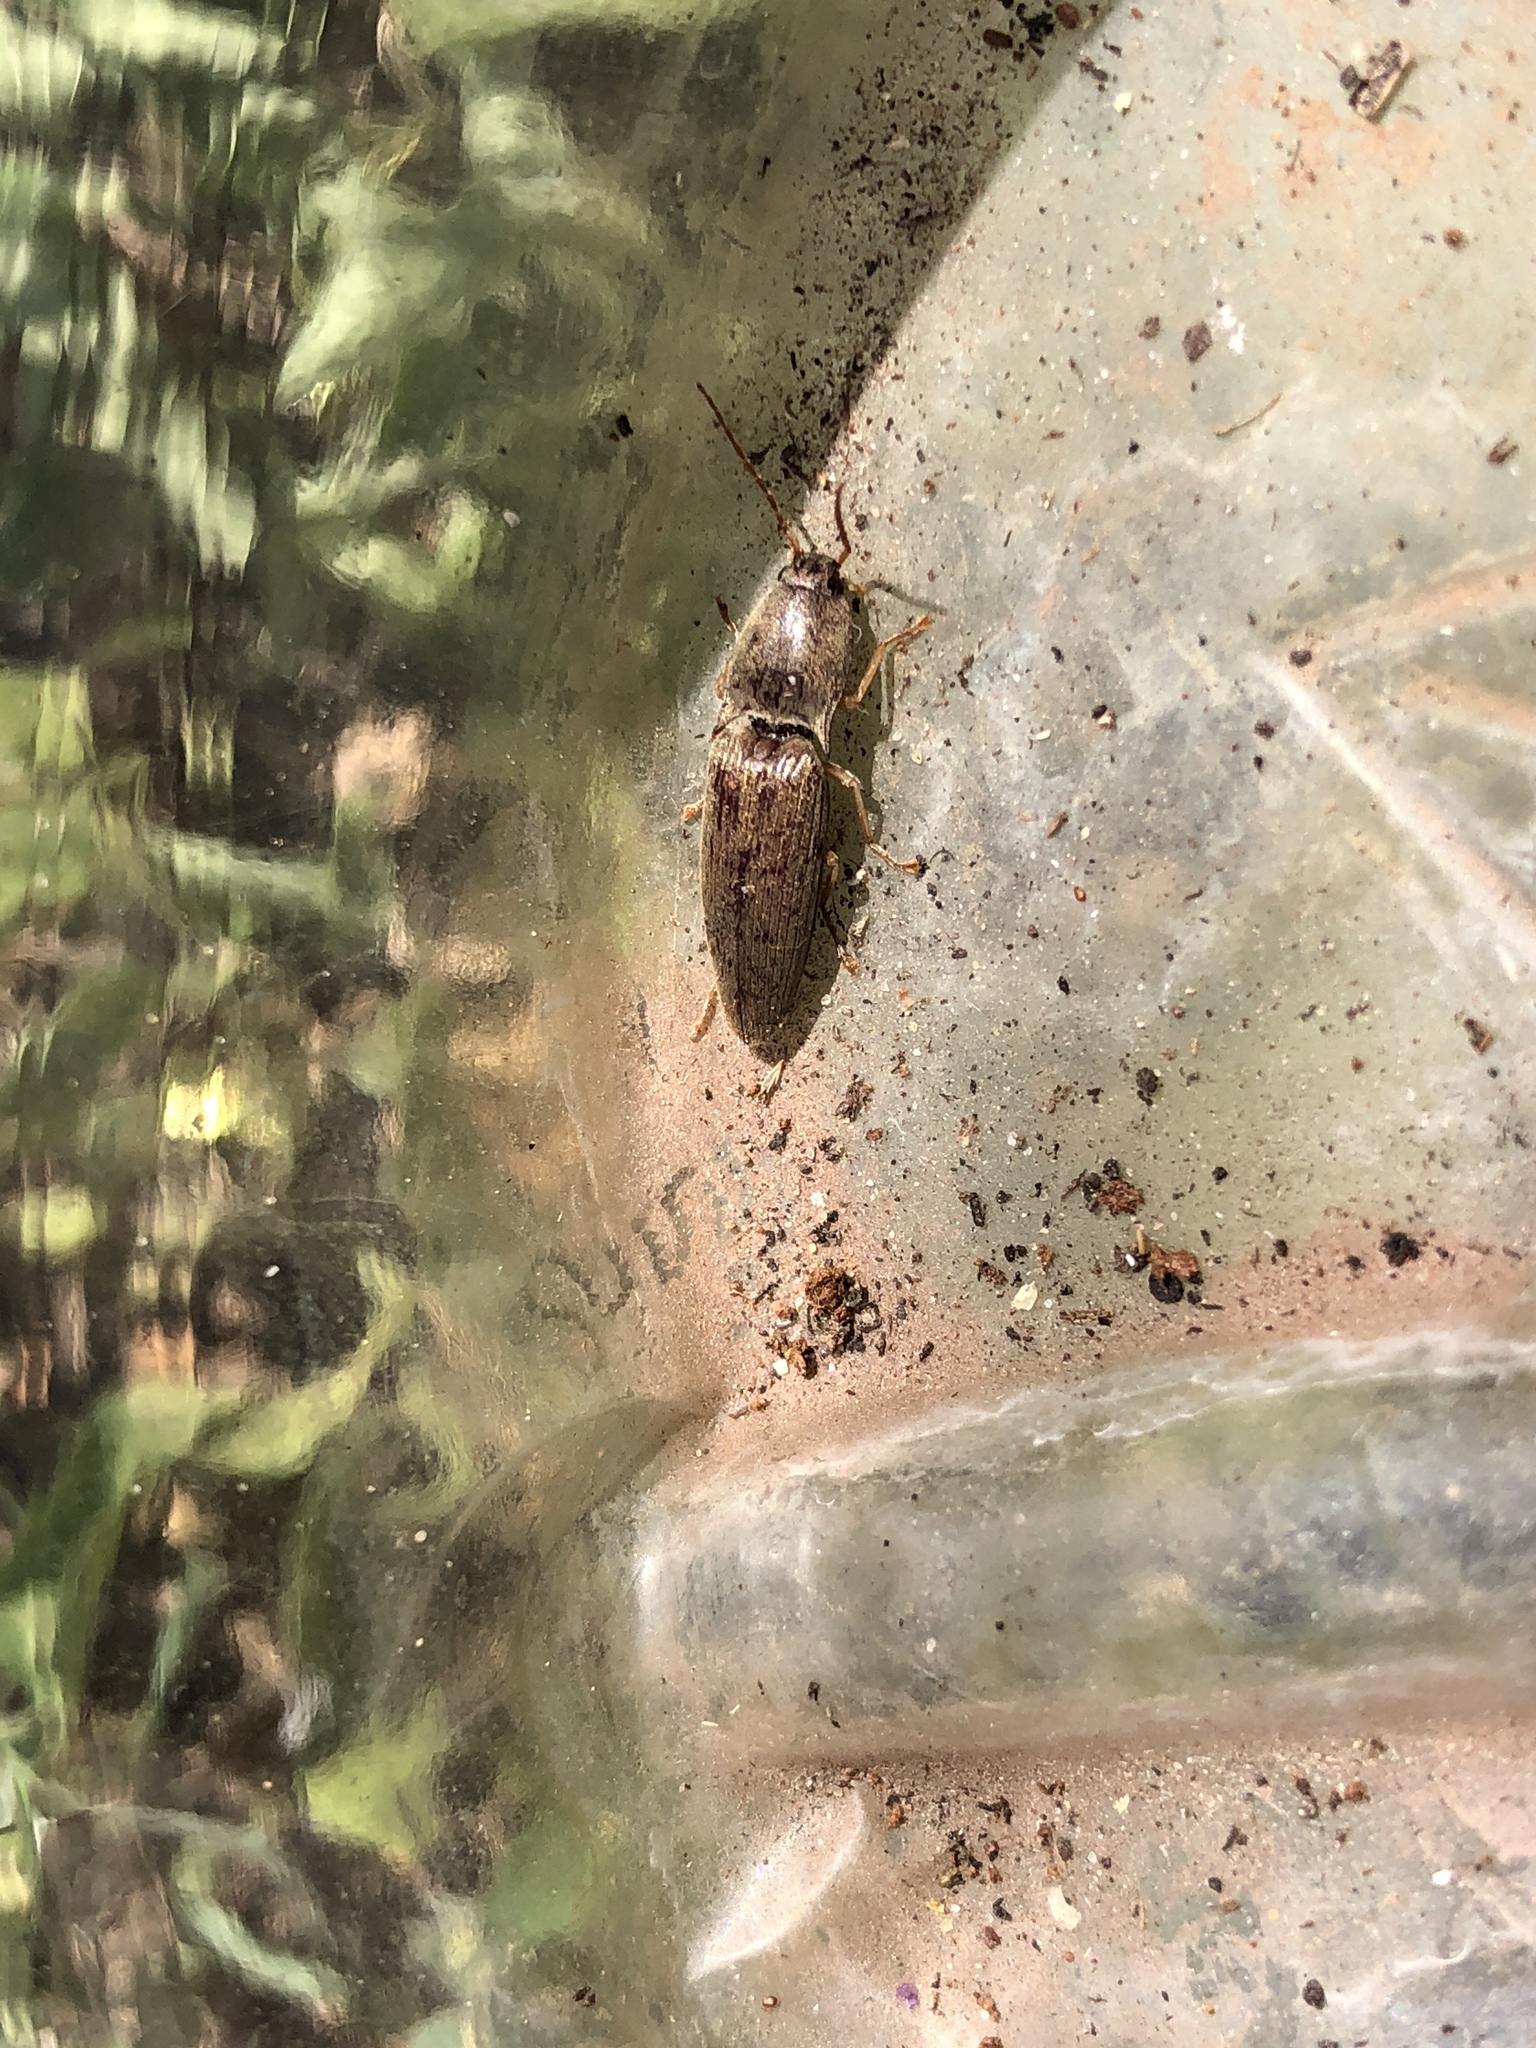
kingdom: Animalia
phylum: Arthropoda
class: Insecta
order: Coleoptera
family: Elateridae
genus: Monocrepidius
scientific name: Monocrepidius lividus
